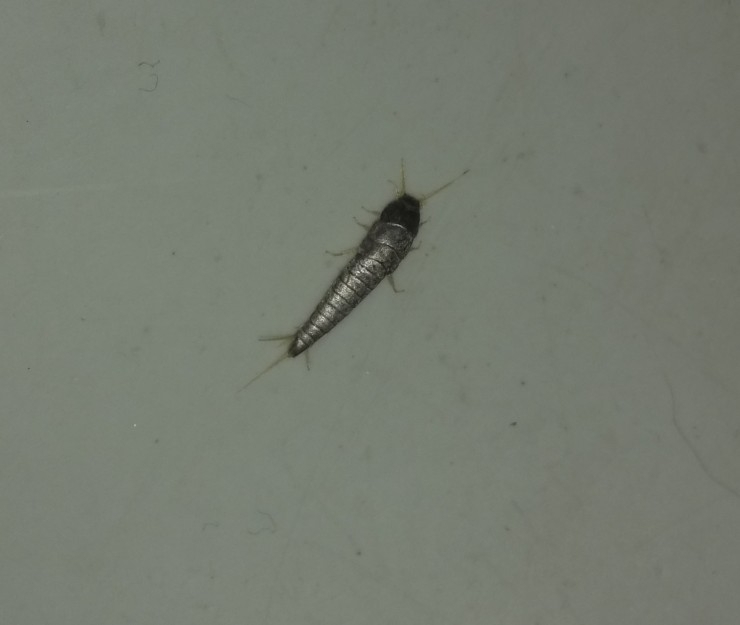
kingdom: Animalia
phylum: Arthropoda
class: Insecta
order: Zygentoma
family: Lepismatidae
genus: Lepisma
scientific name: Lepisma saccharinum
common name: Silverfish
